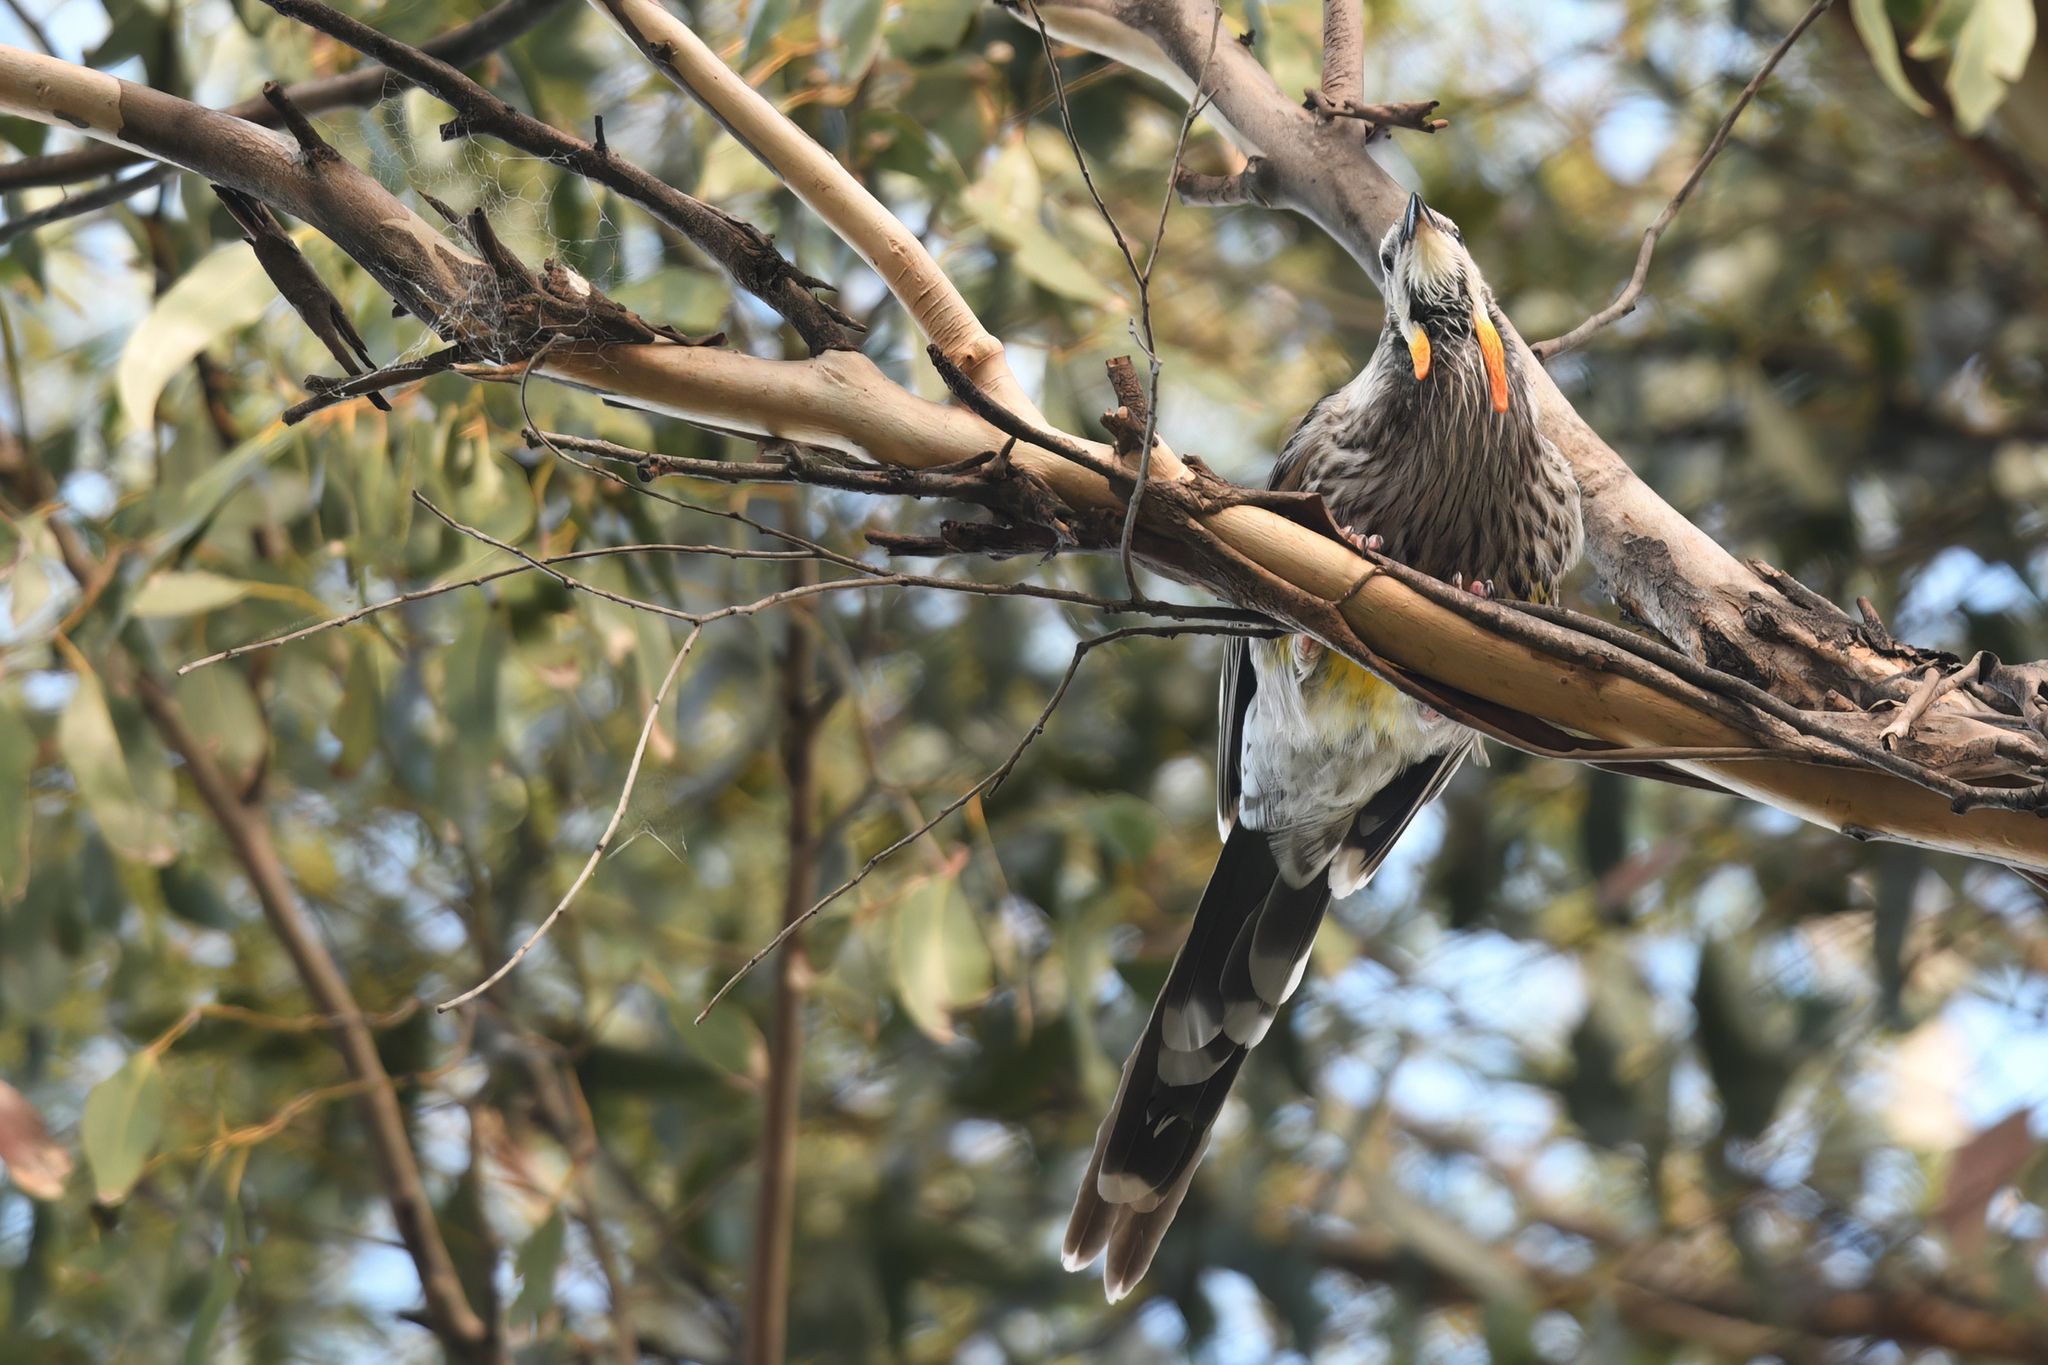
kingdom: Animalia
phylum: Chordata
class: Aves
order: Passeriformes
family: Meliphagidae
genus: Anthochaera
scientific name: Anthochaera paradoxa
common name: Yellow wattlebird
